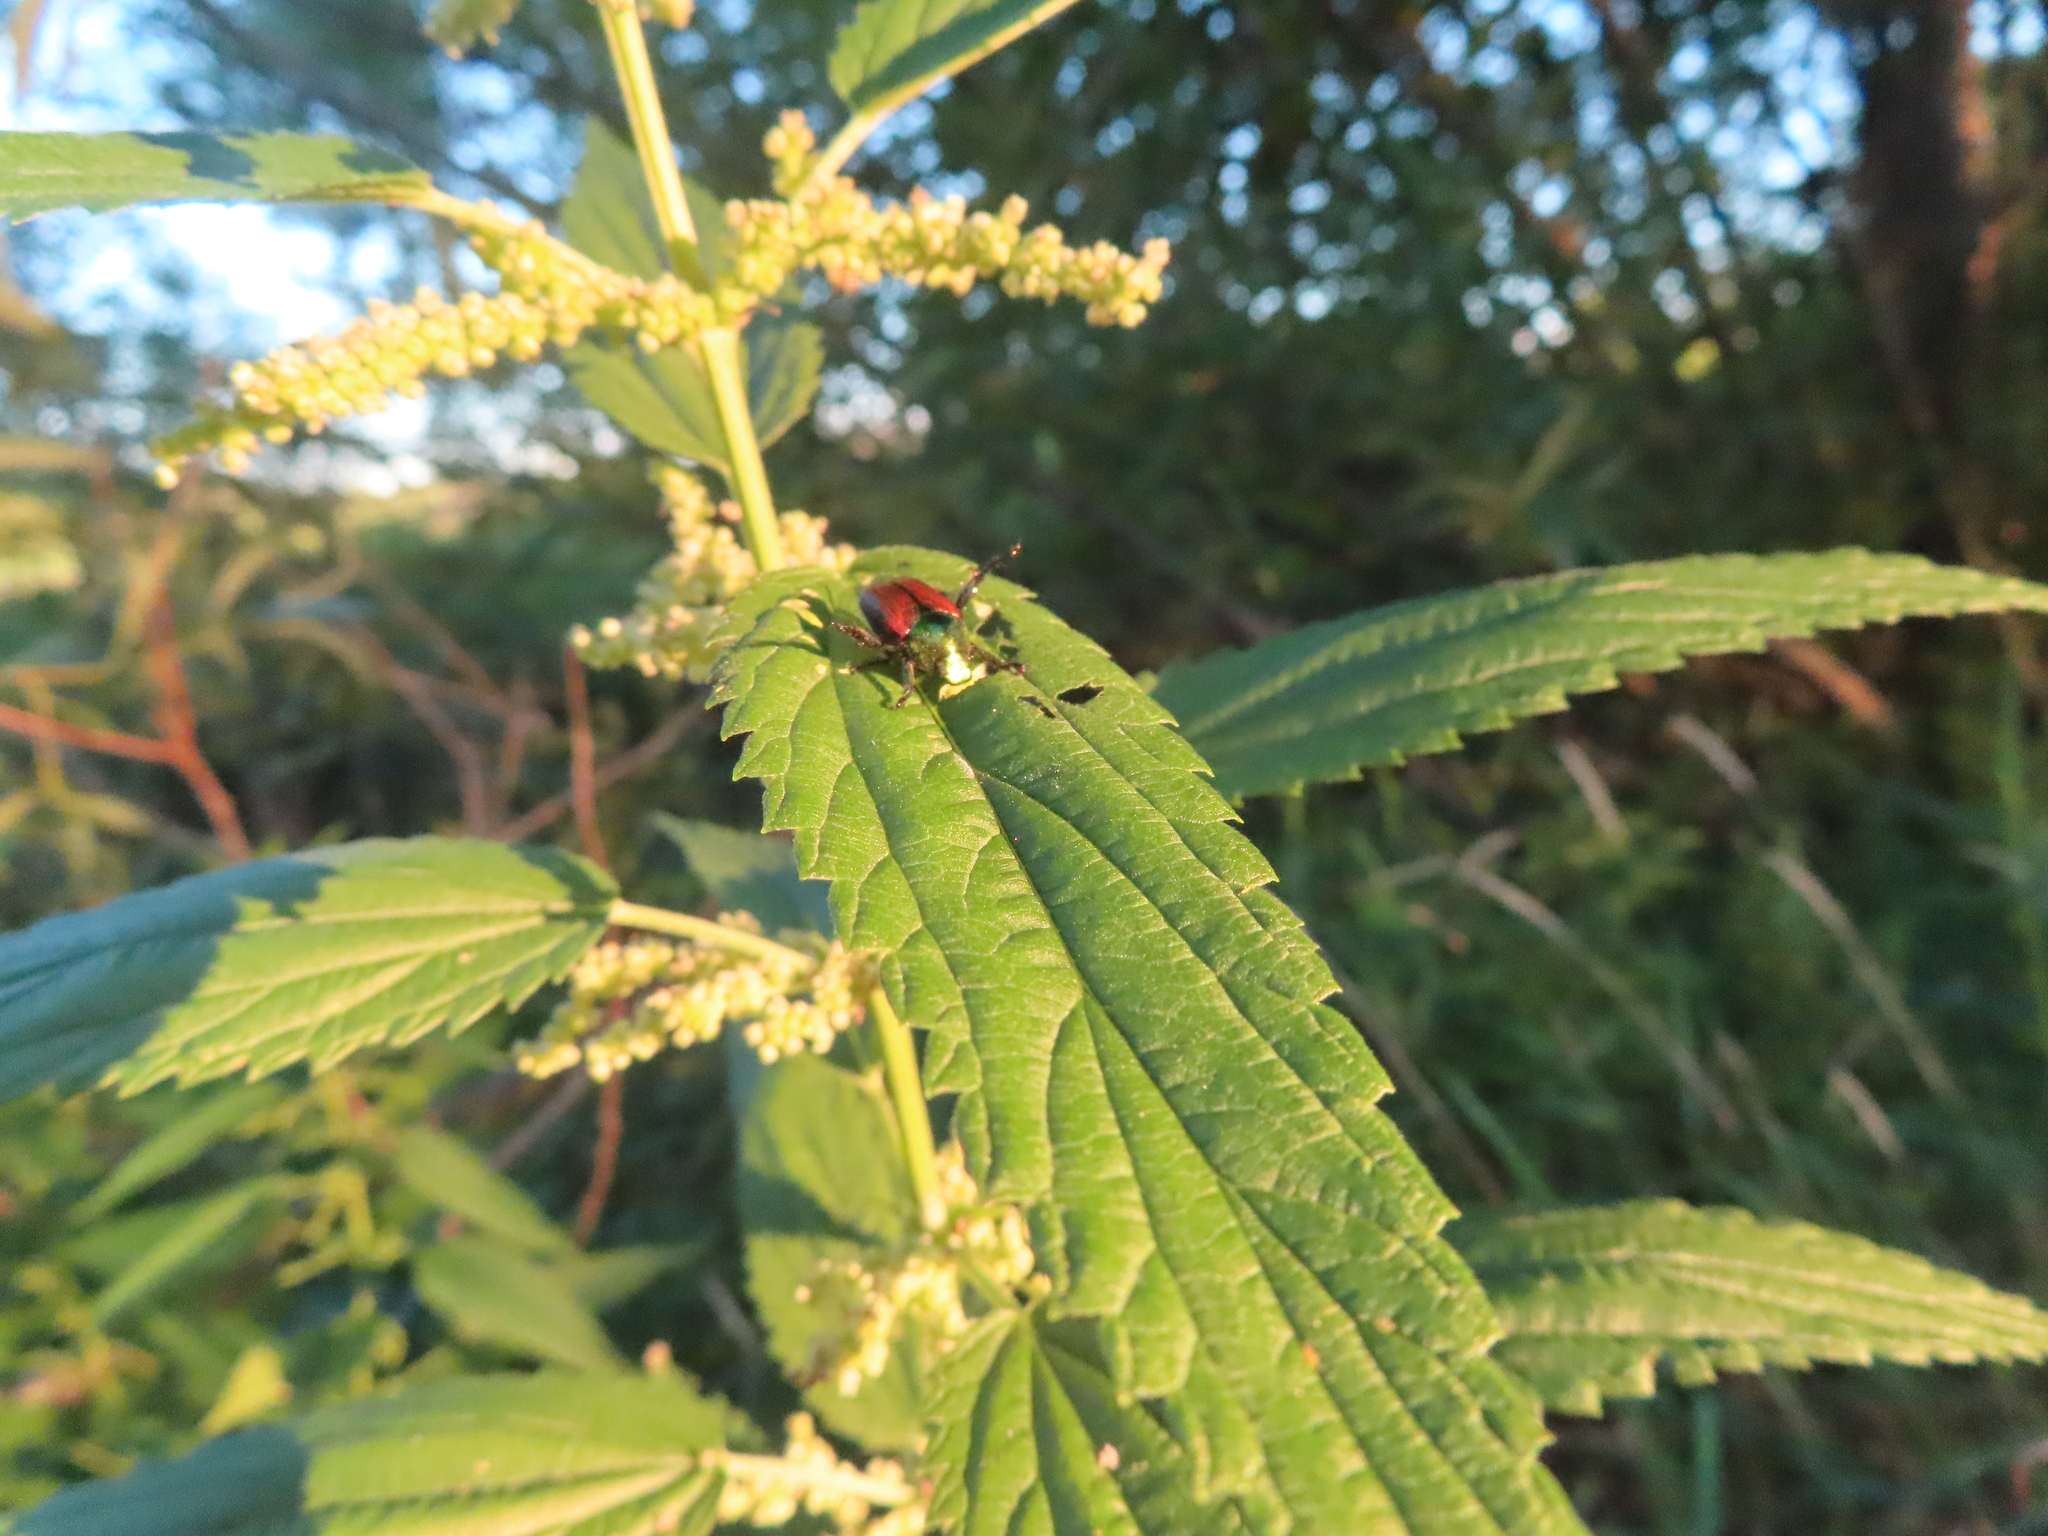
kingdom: Animalia
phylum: Arthropoda
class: Insecta
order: Coleoptera
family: Scarabaeidae
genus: Popillia
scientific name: Popillia japonica
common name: Japanese beetle
